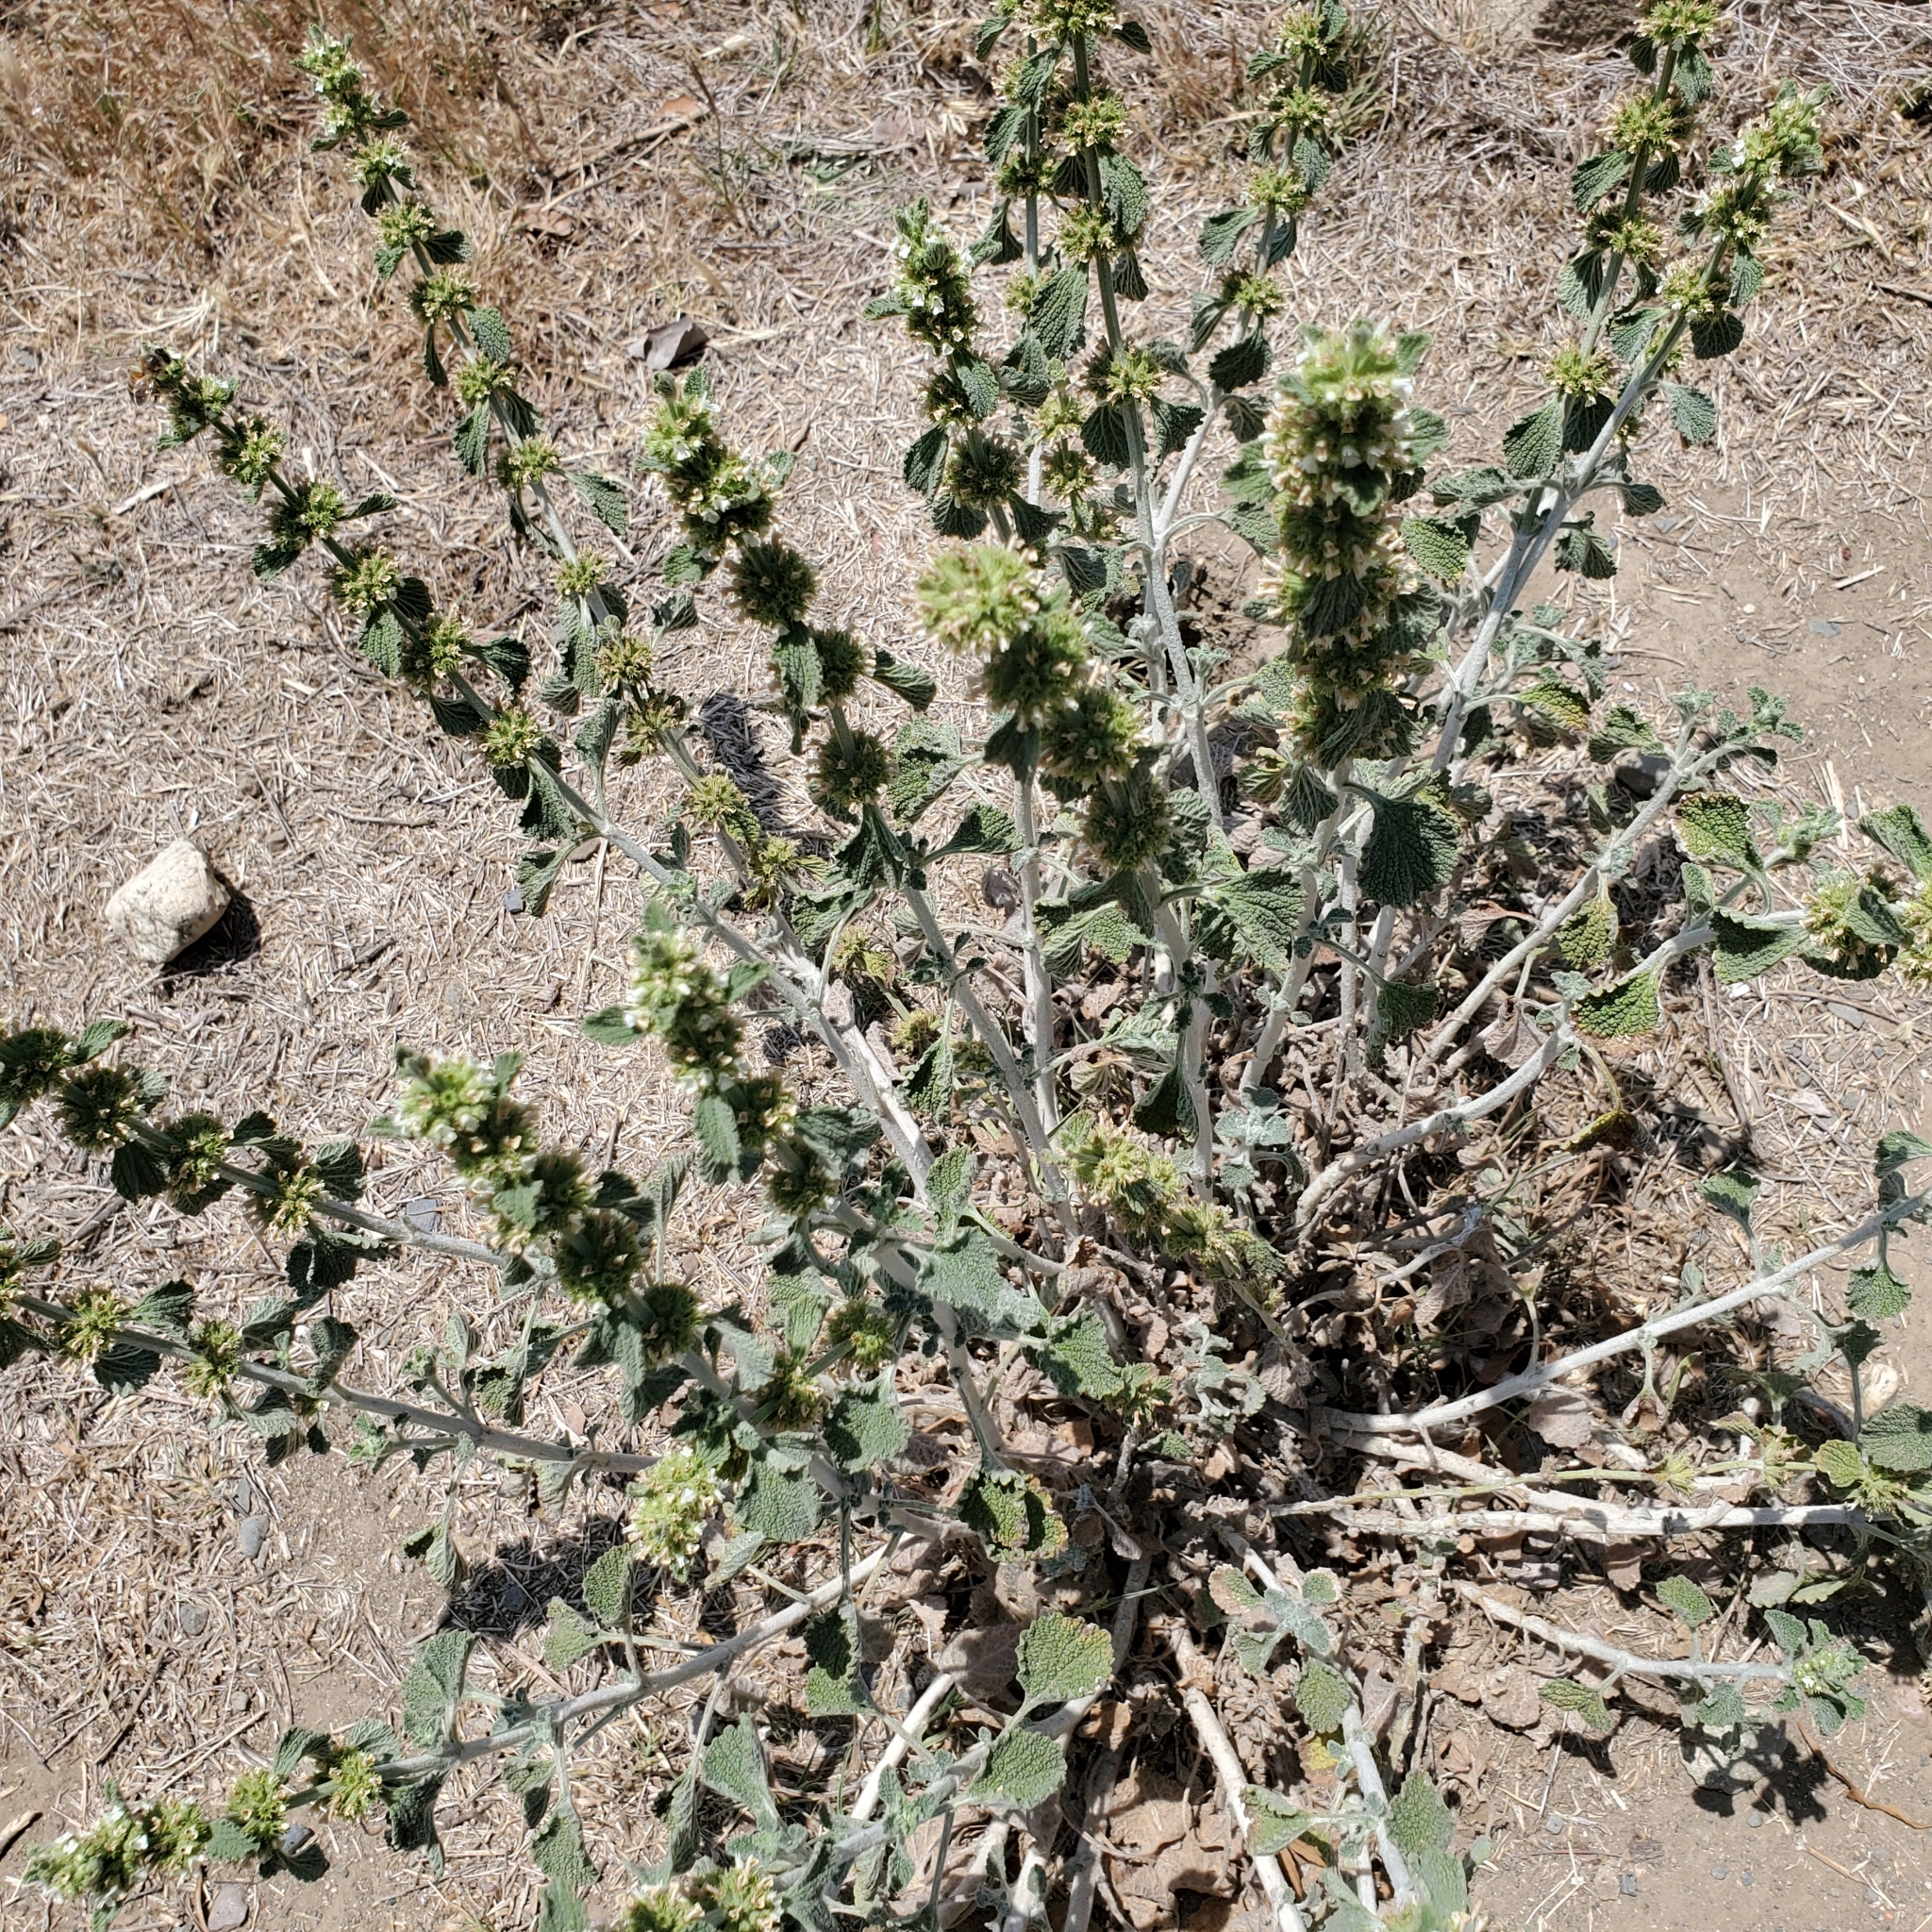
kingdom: Plantae
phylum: Tracheophyta
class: Magnoliopsida
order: Lamiales
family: Lamiaceae
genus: Marrubium
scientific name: Marrubium vulgare
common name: Horehound
